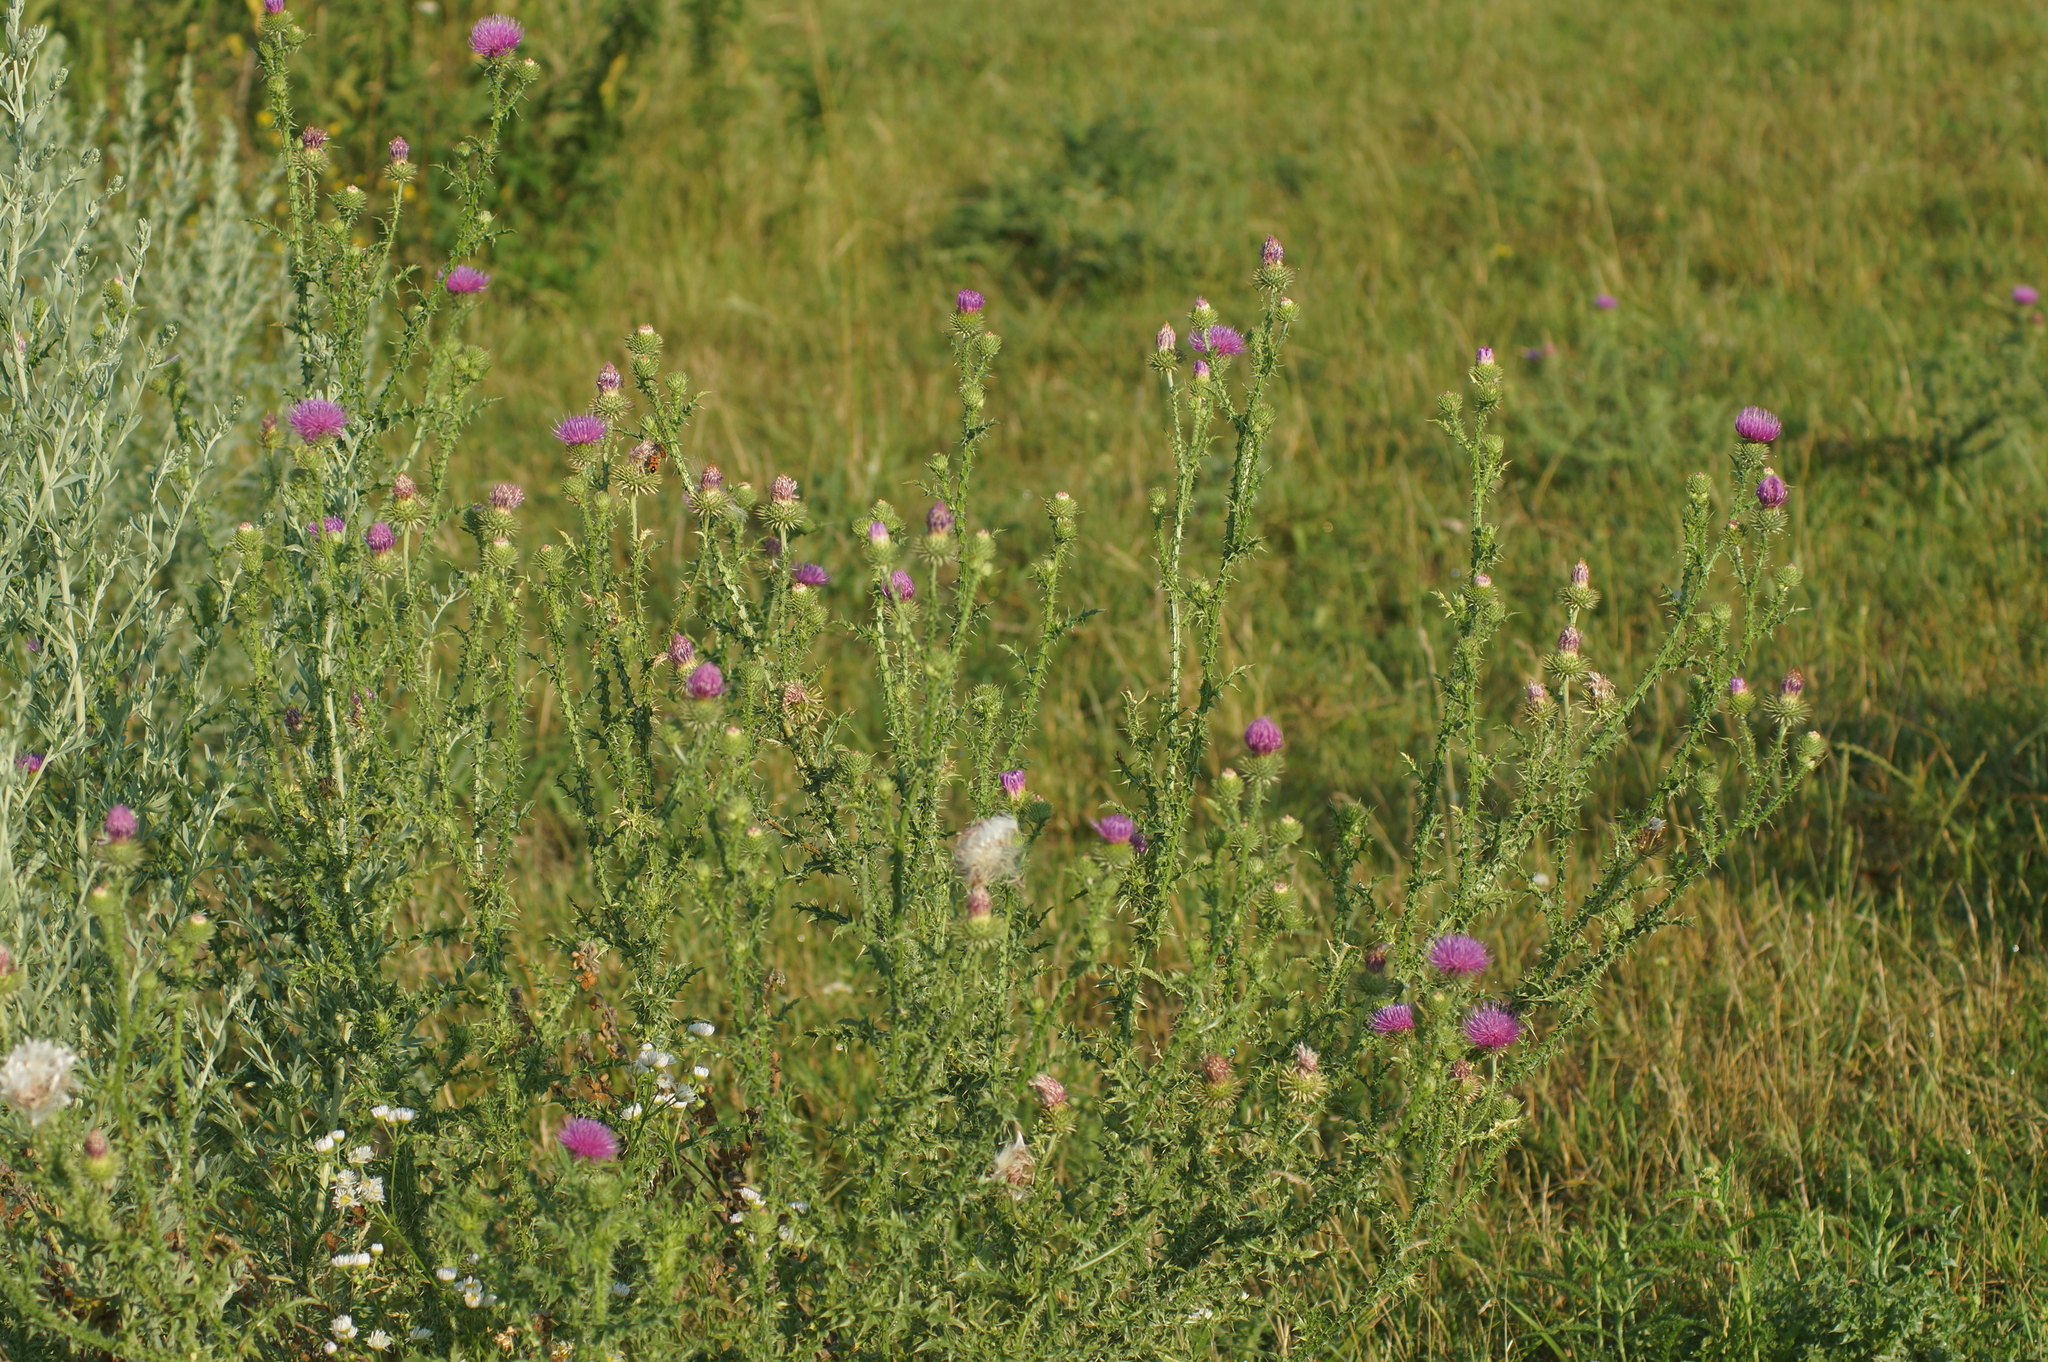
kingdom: Plantae
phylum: Tracheophyta
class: Magnoliopsida
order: Asterales
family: Asteraceae
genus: Carduus
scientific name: Carduus acanthoides
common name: Plumeless thistle
